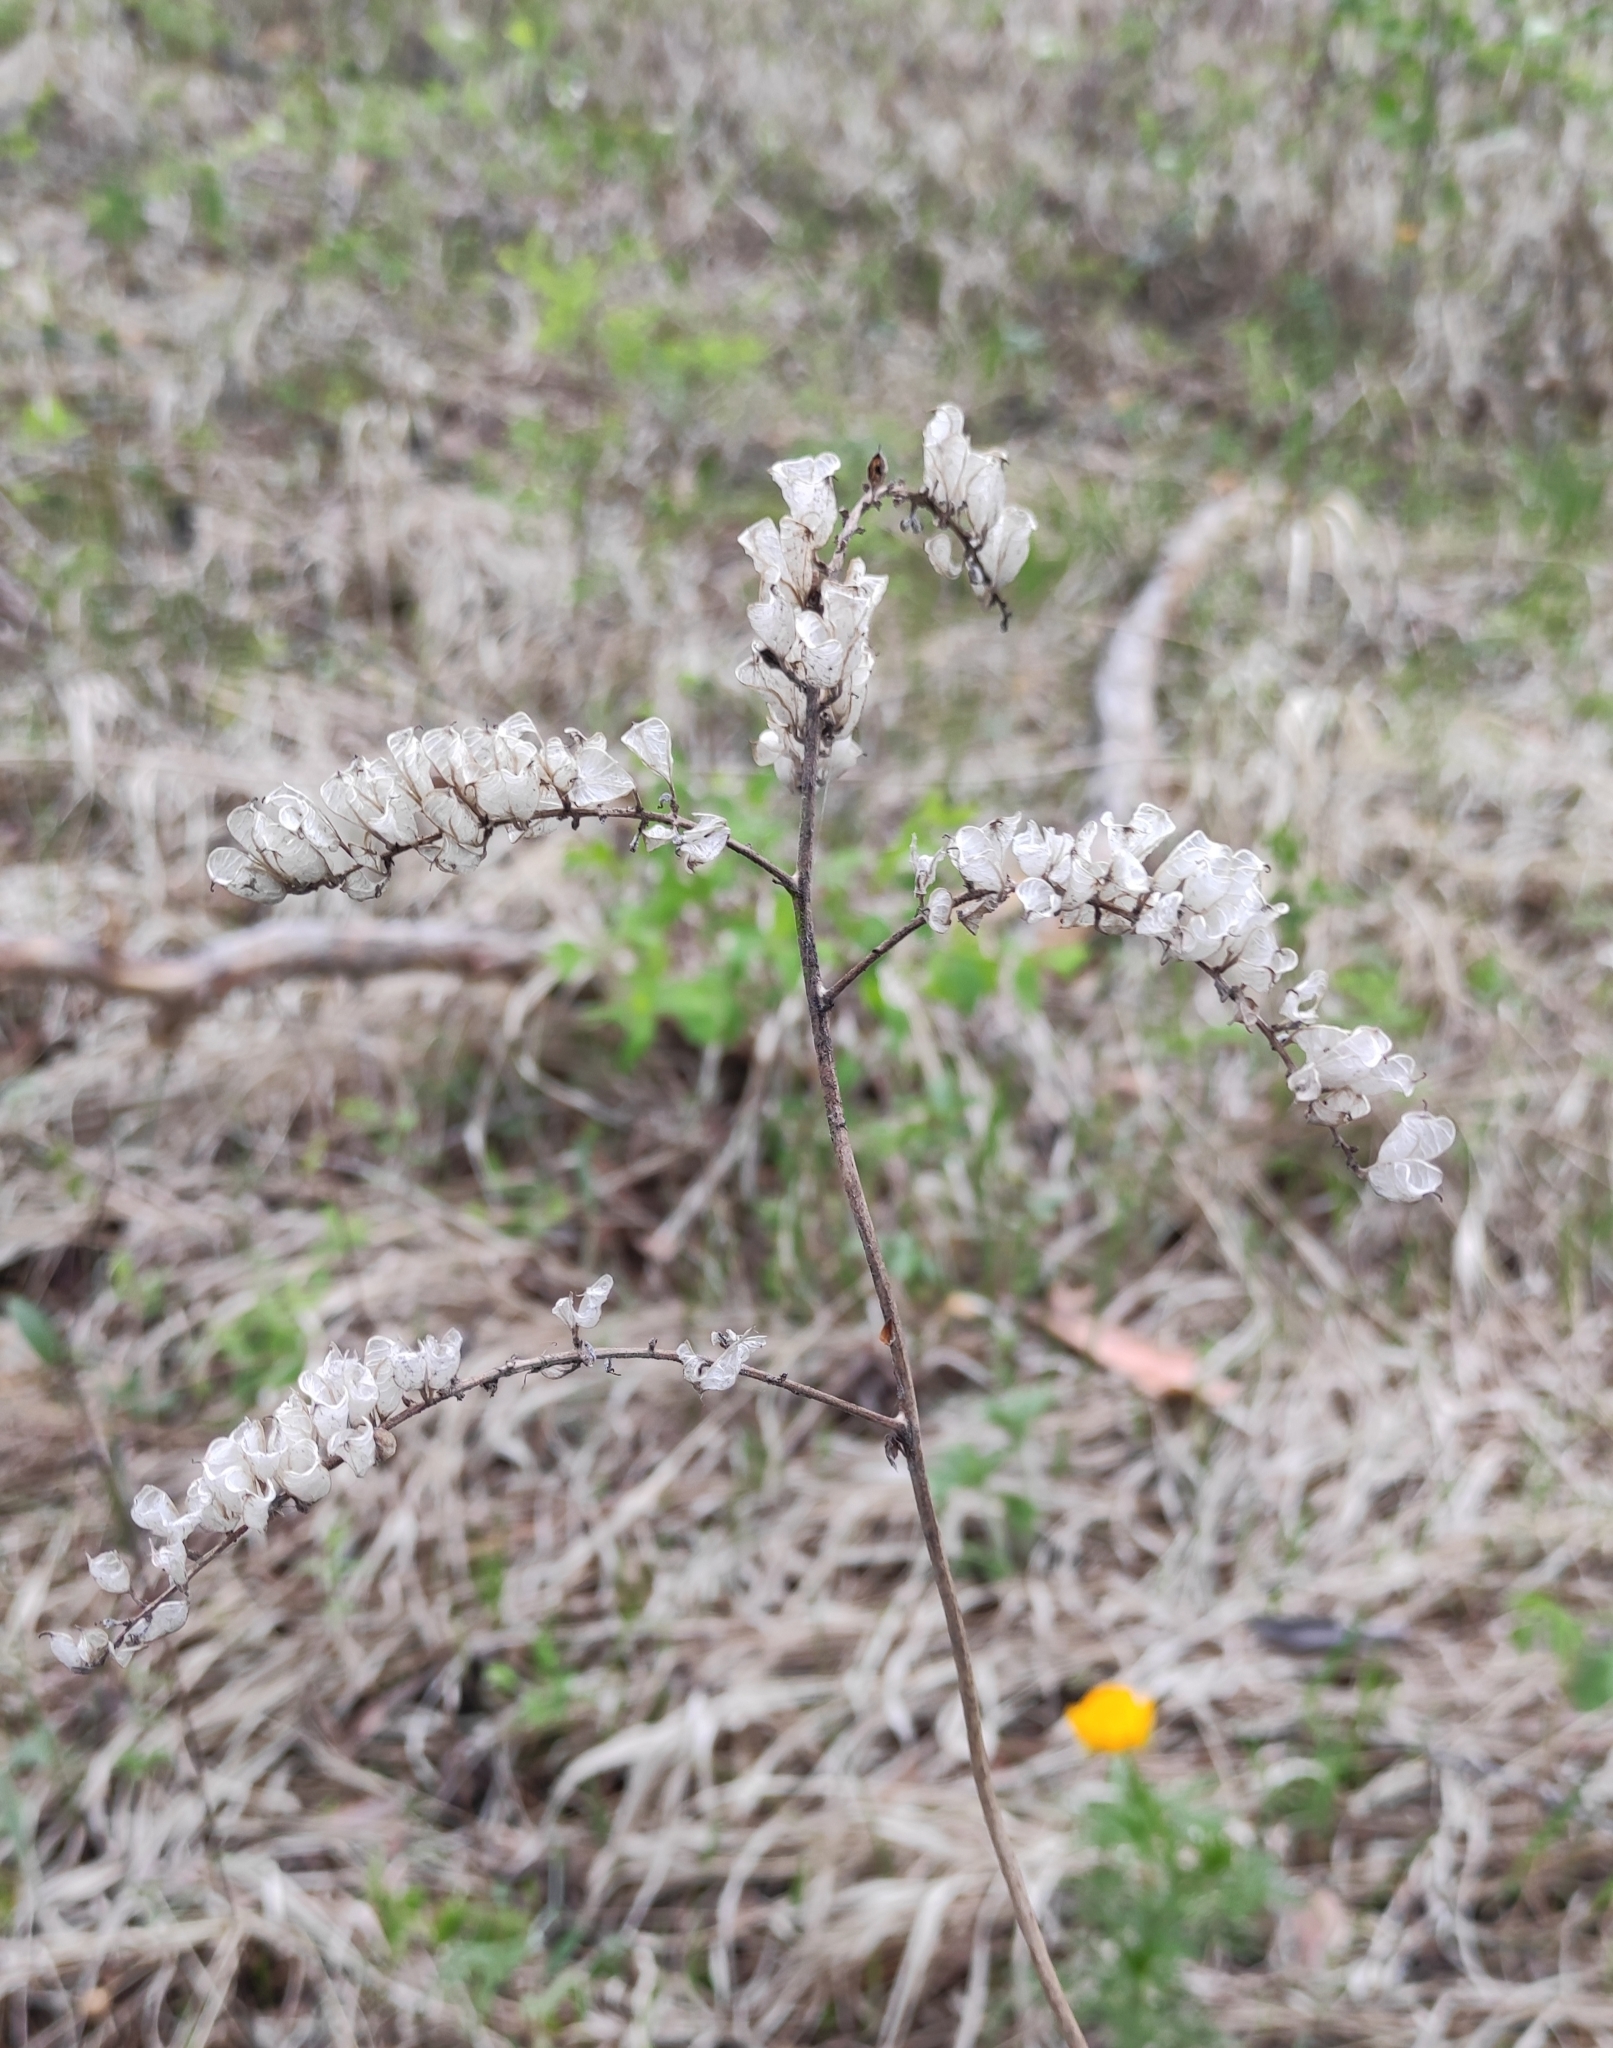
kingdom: Plantae
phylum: Tracheophyta
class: Magnoliopsida
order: Ranunculales
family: Ranunculaceae
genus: Actaea
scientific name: Actaea cimicifuga
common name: Chinese cimicifuga
